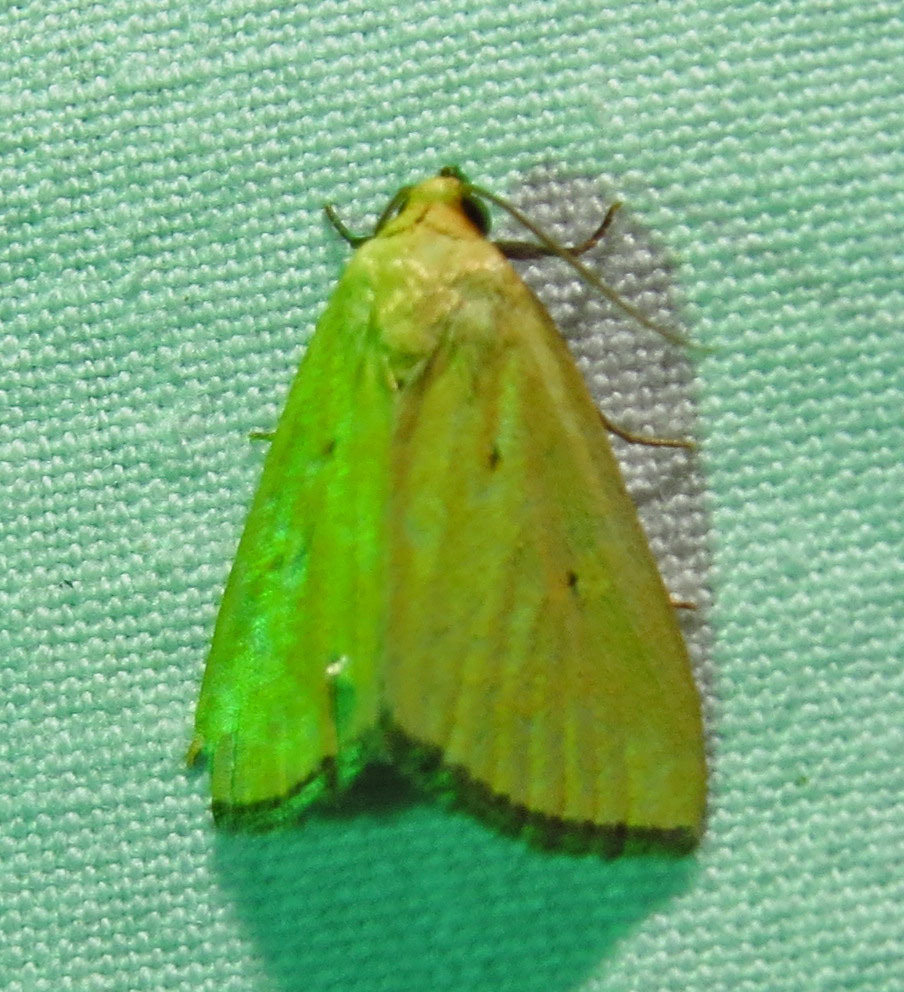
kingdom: Animalia
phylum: Arthropoda
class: Insecta
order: Lepidoptera
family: Noctuidae
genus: Marimatha
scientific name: Marimatha nigrofimbria
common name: Black-bordered lemon moth
